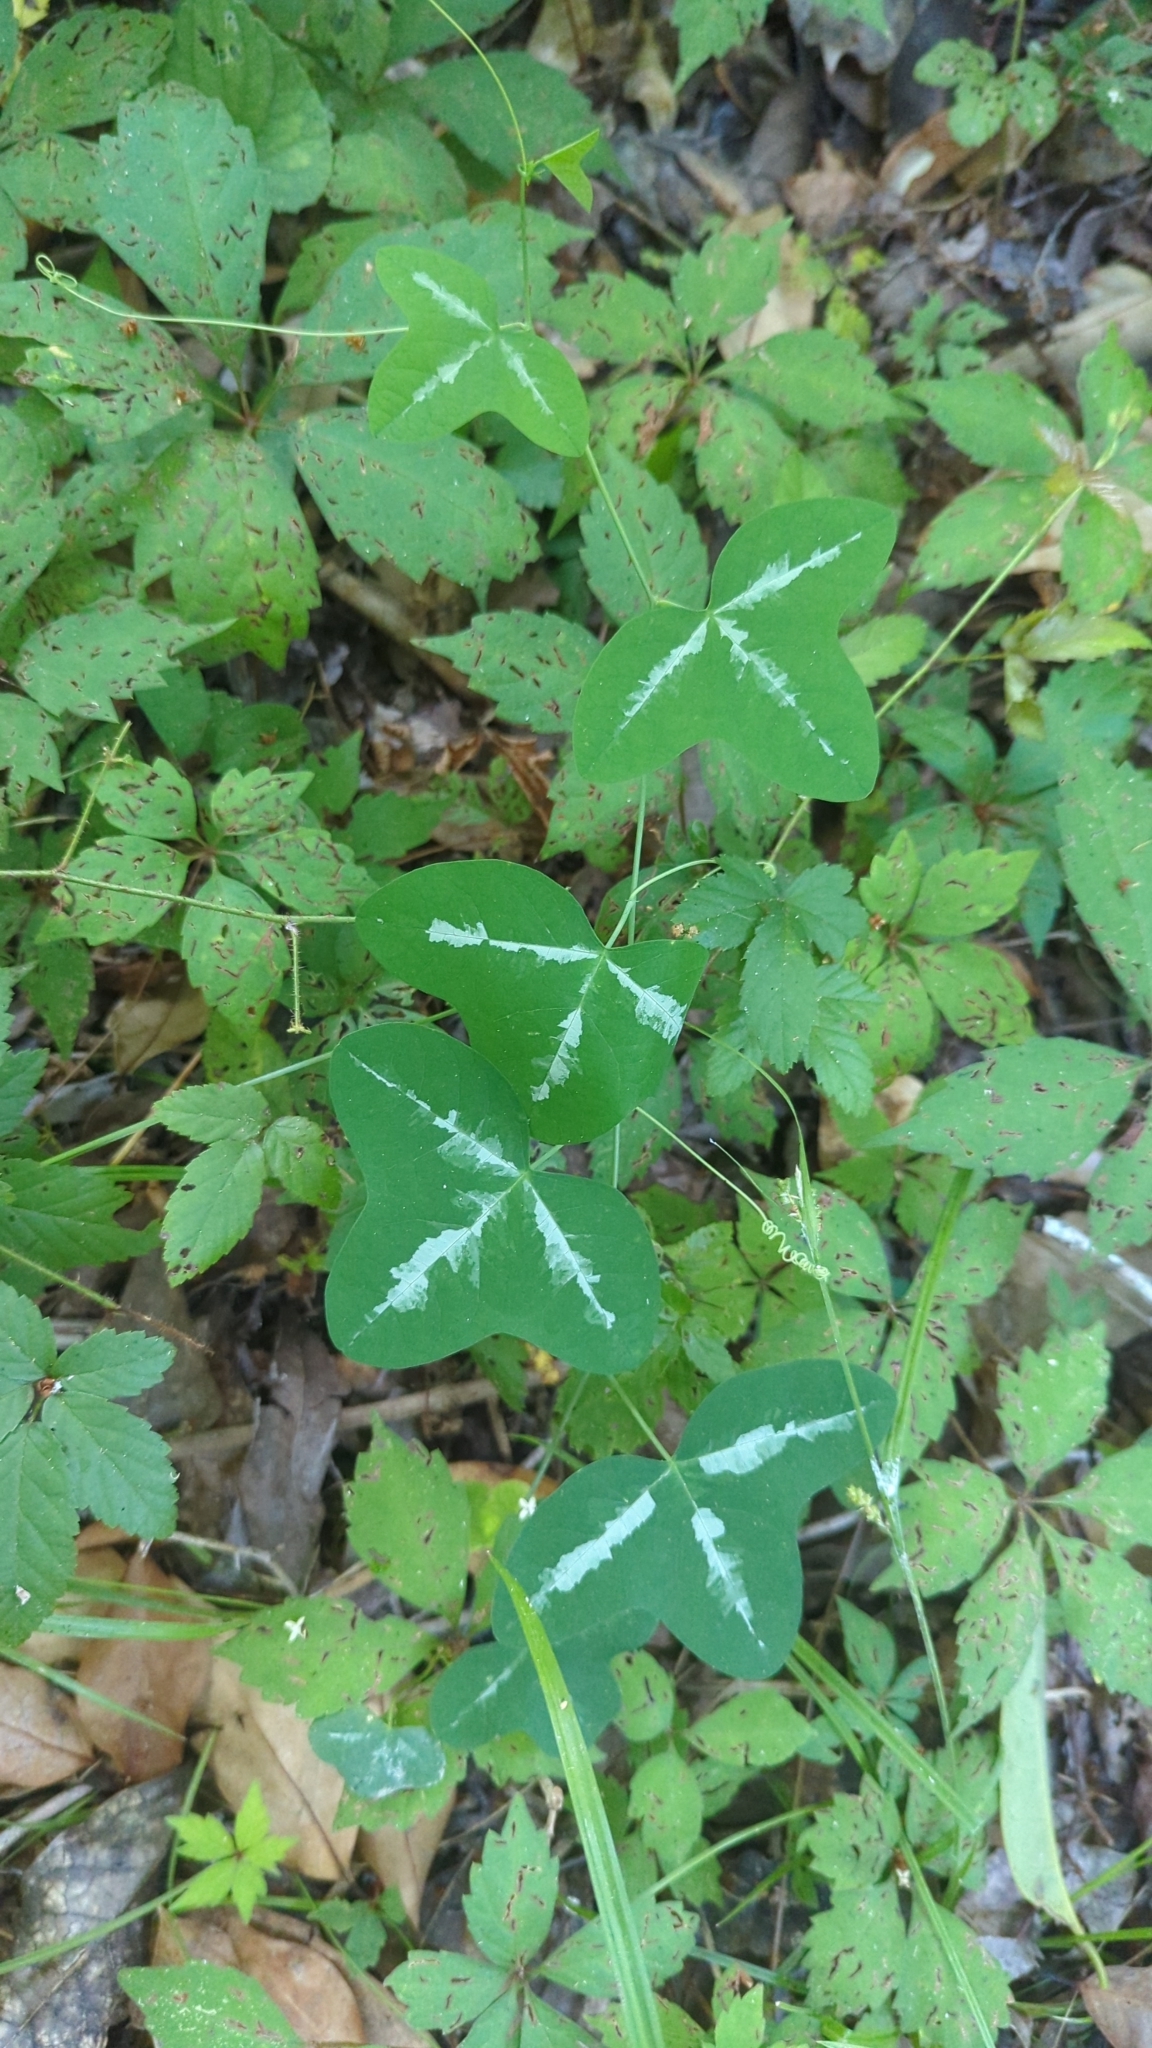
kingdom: Plantae
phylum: Tracheophyta
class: Magnoliopsida
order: Malpighiales
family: Passifloraceae
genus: Passiflora
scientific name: Passiflora lutea
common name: Yellow passionflower
